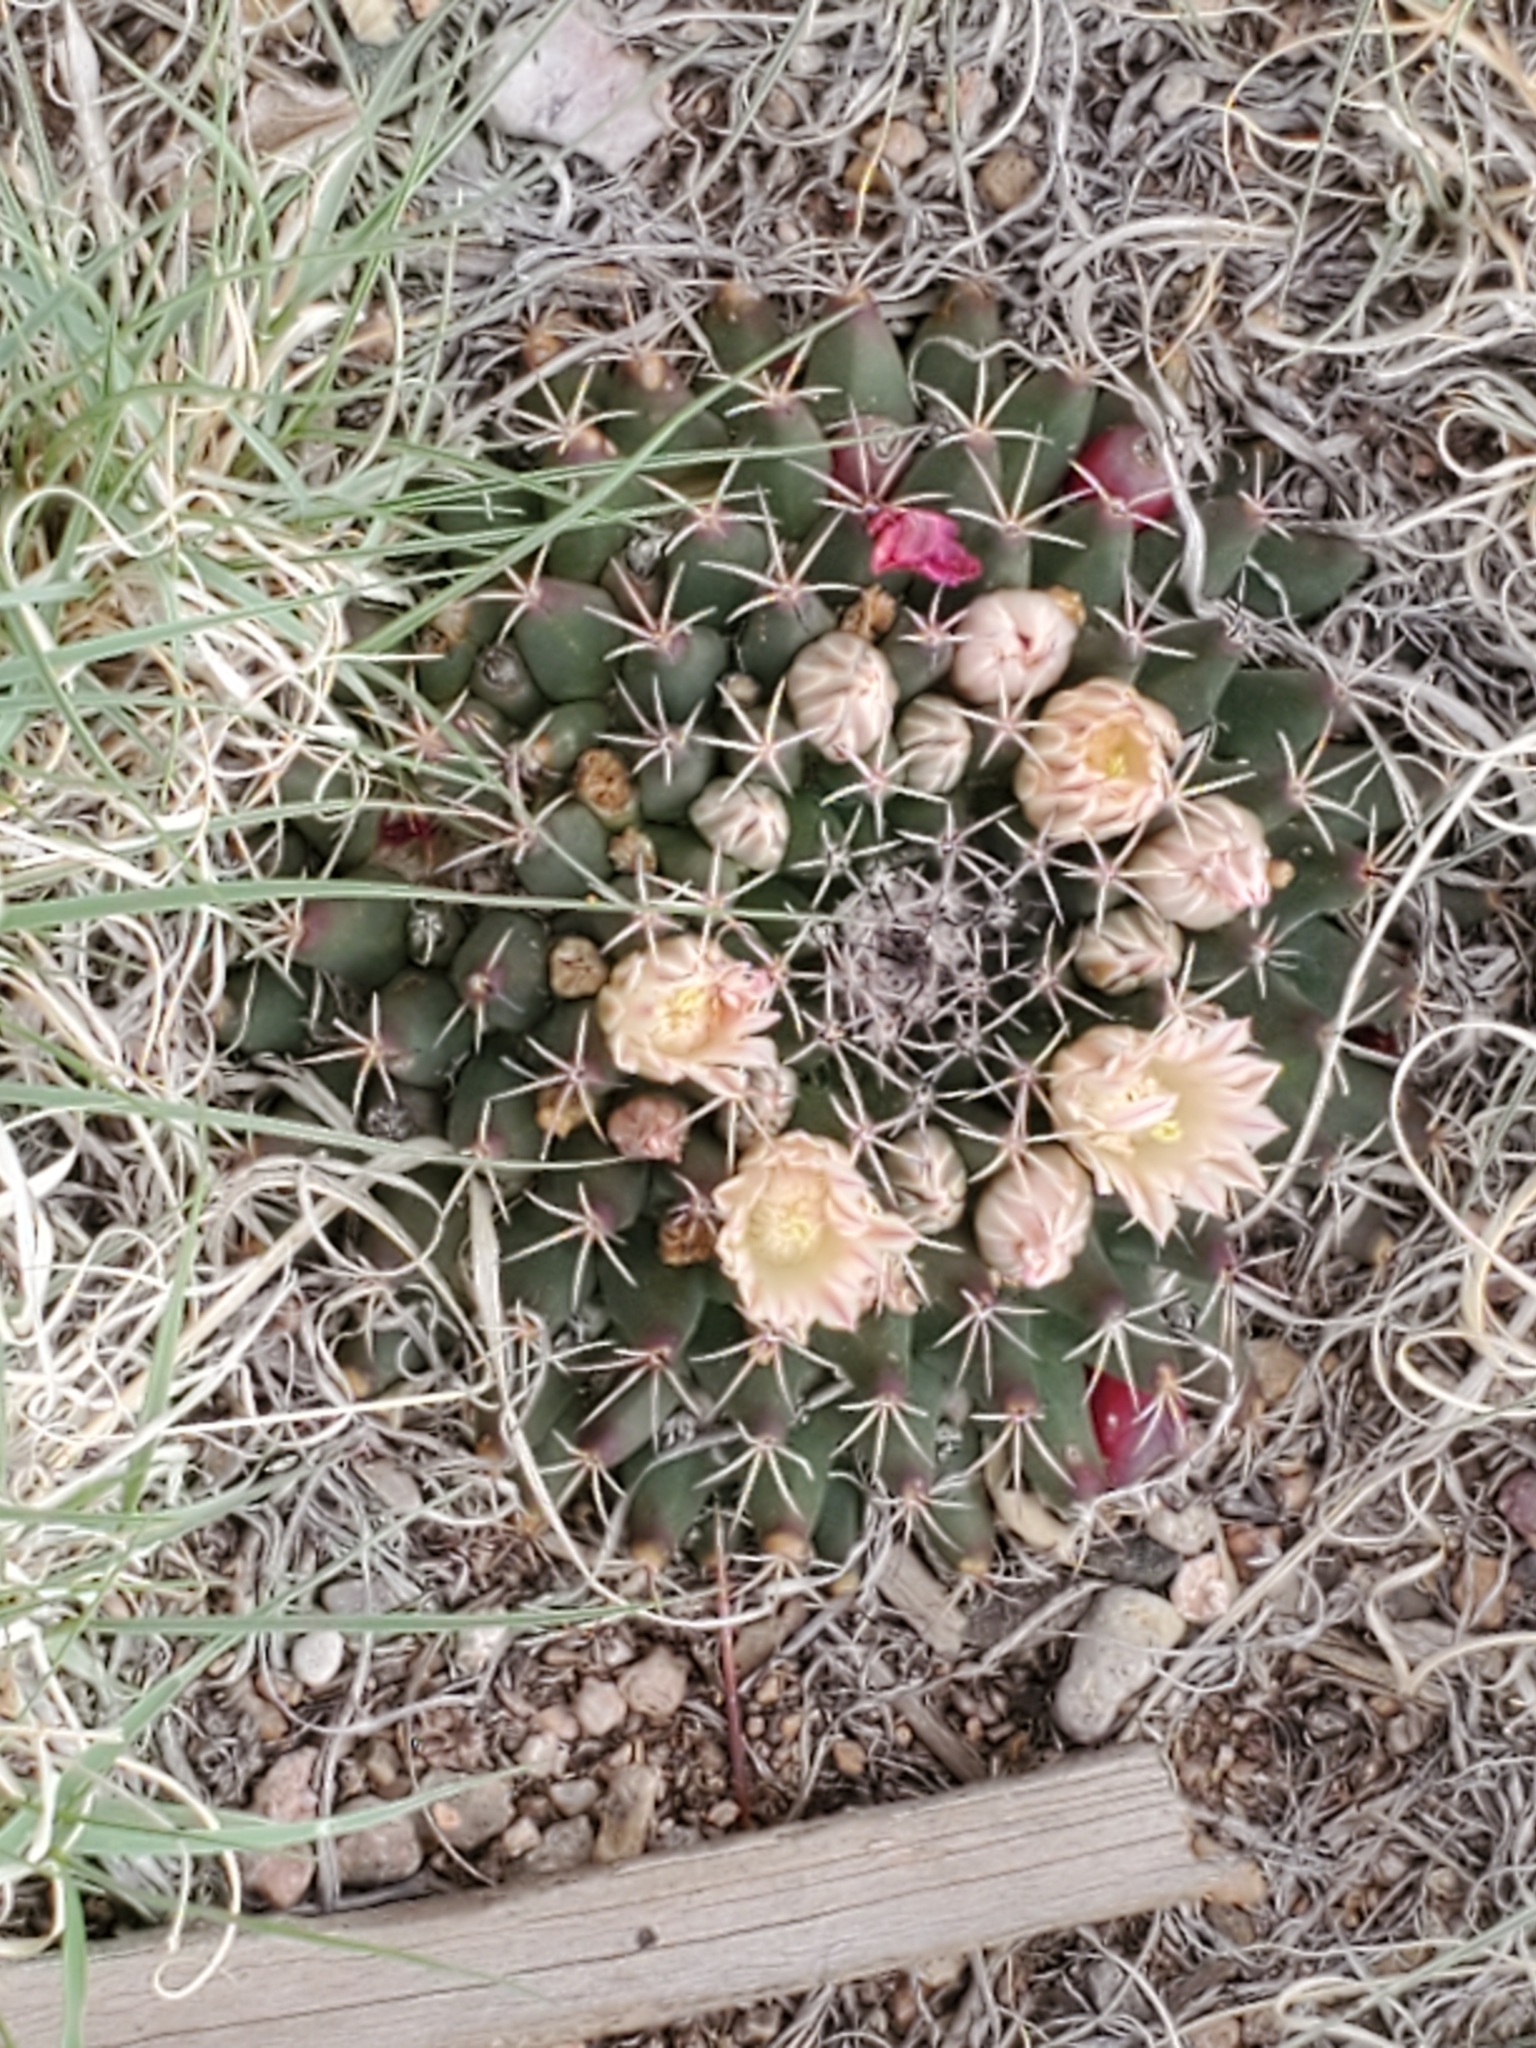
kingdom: Plantae
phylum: Tracheophyta
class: Magnoliopsida
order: Caryophyllales
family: Cactaceae
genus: Mammillaria
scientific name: Mammillaria heyderi
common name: Little nipple cactus
